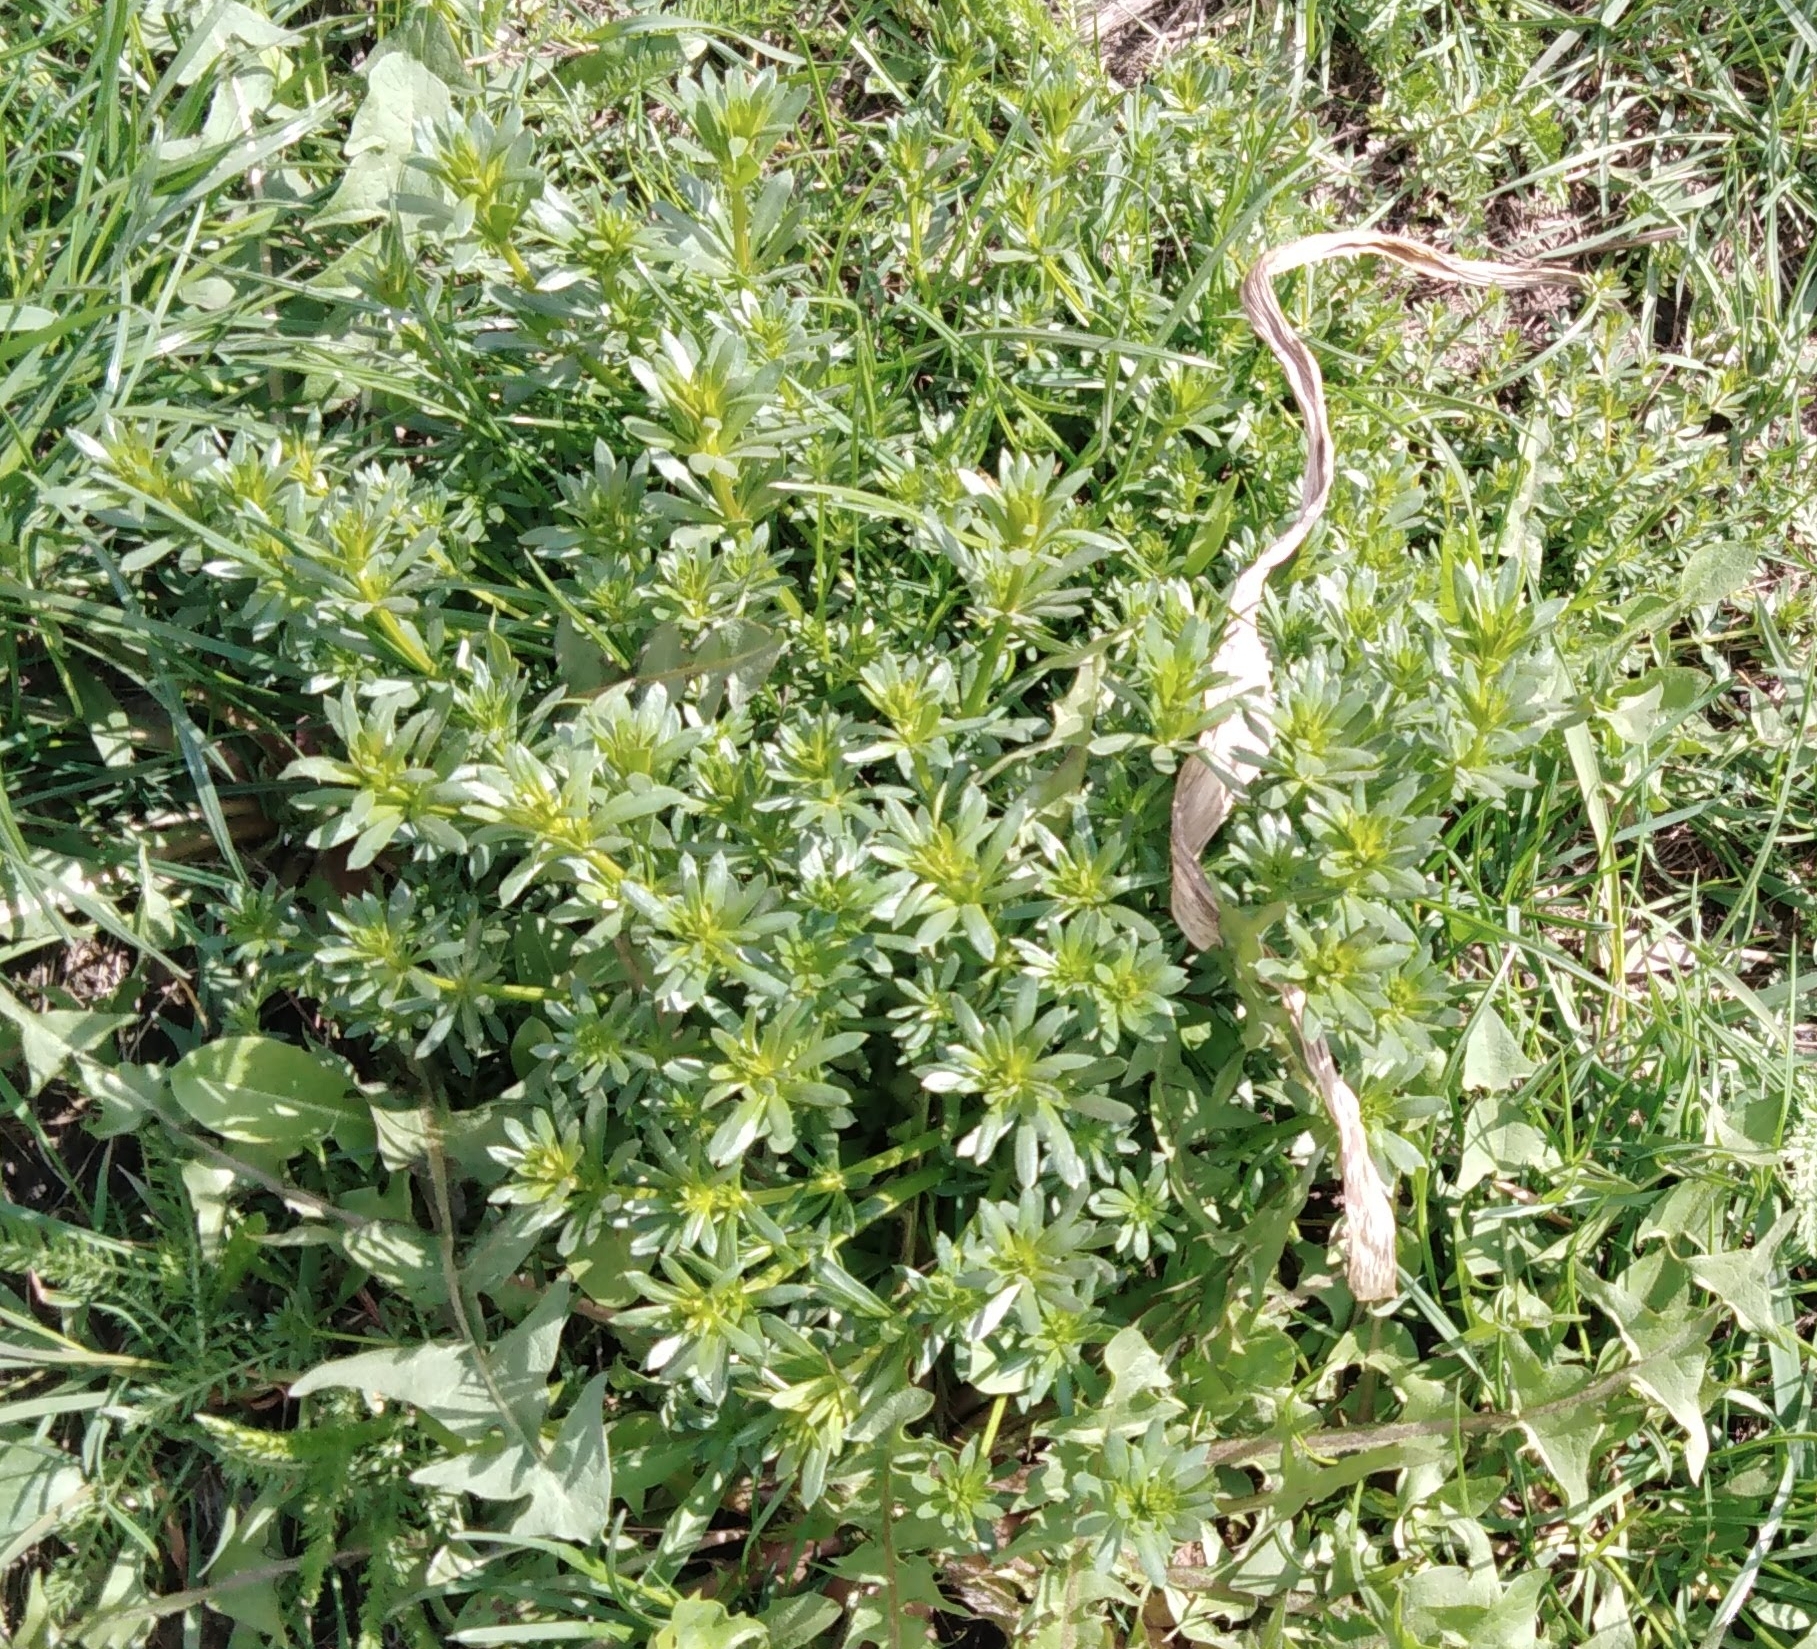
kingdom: Plantae
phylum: Tracheophyta
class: Magnoliopsida
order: Gentianales
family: Rubiaceae
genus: Galium
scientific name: Galium mollugo
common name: Hedge bedstraw
